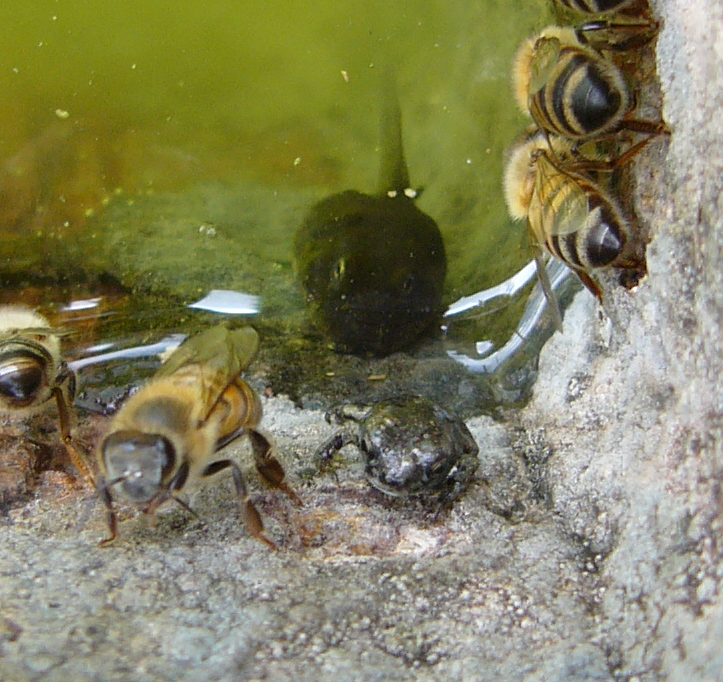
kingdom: Animalia
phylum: Chordata
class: Amphibia
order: Anura
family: Bufonidae
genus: Anaxyrus
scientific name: Anaxyrus punctatus
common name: Red-spotted toad
